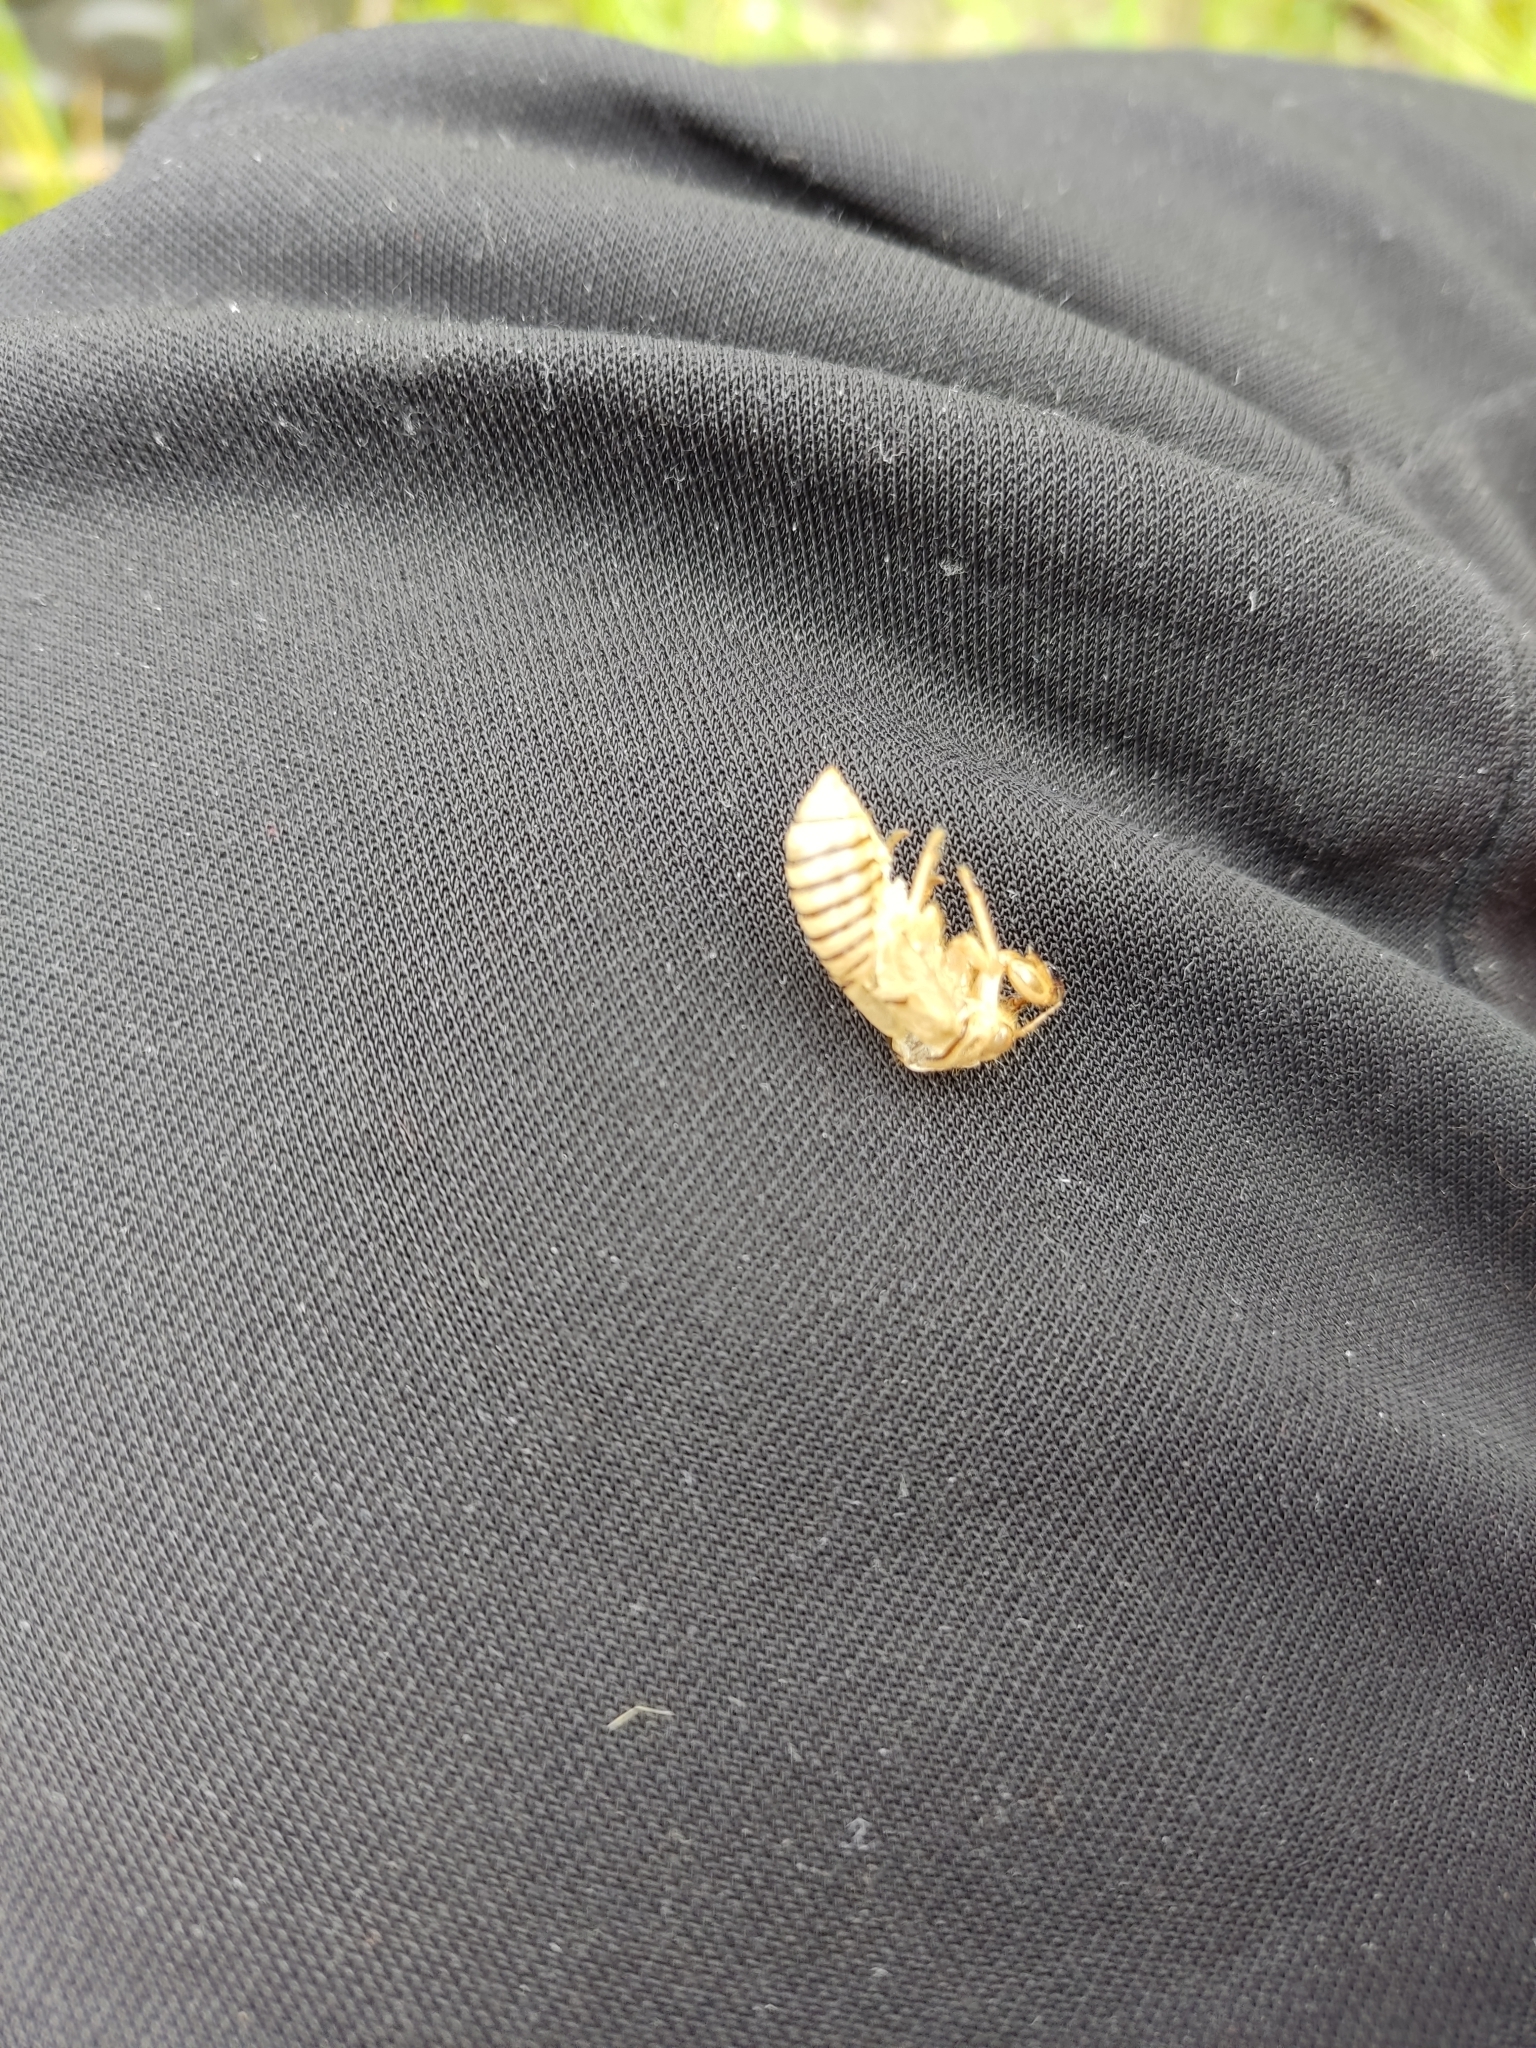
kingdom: Animalia
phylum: Arthropoda
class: Insecta
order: Hemiptera
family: Cicadidae
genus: Cicadetta
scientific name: Cicadetta montana
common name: New forest cicada
